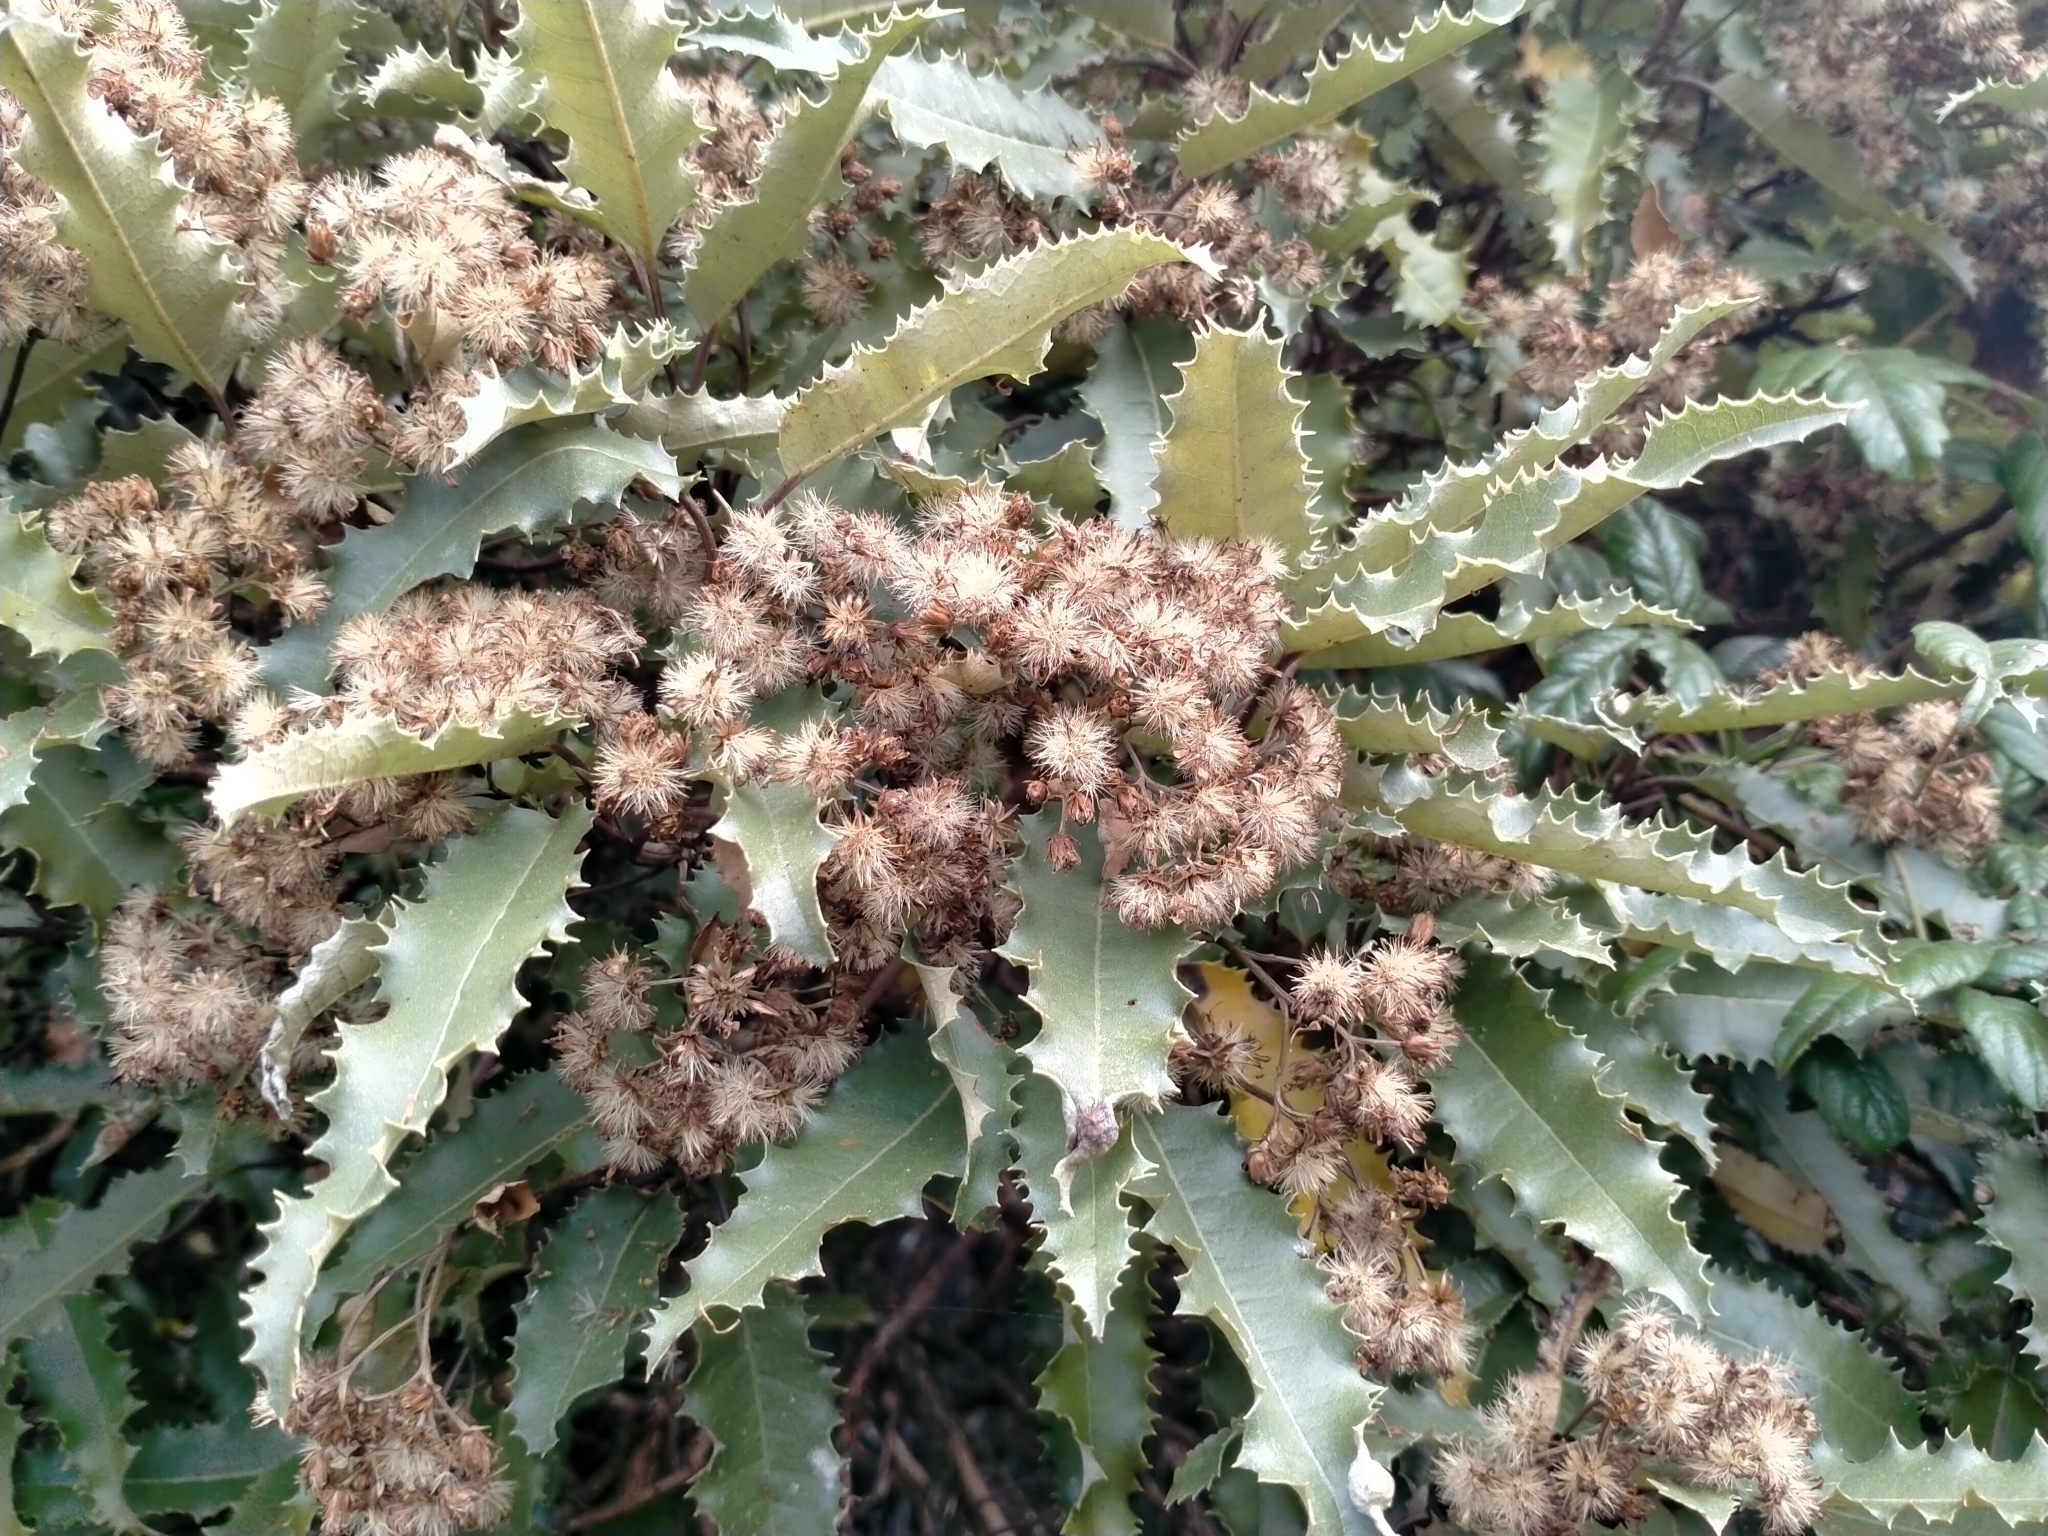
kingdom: Plantae
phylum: Tracheophyta
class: Magnoliopsida
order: Asterales
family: Asteraceae
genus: Olearia
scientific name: Olearia ilicifolia
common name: Maori-holly
